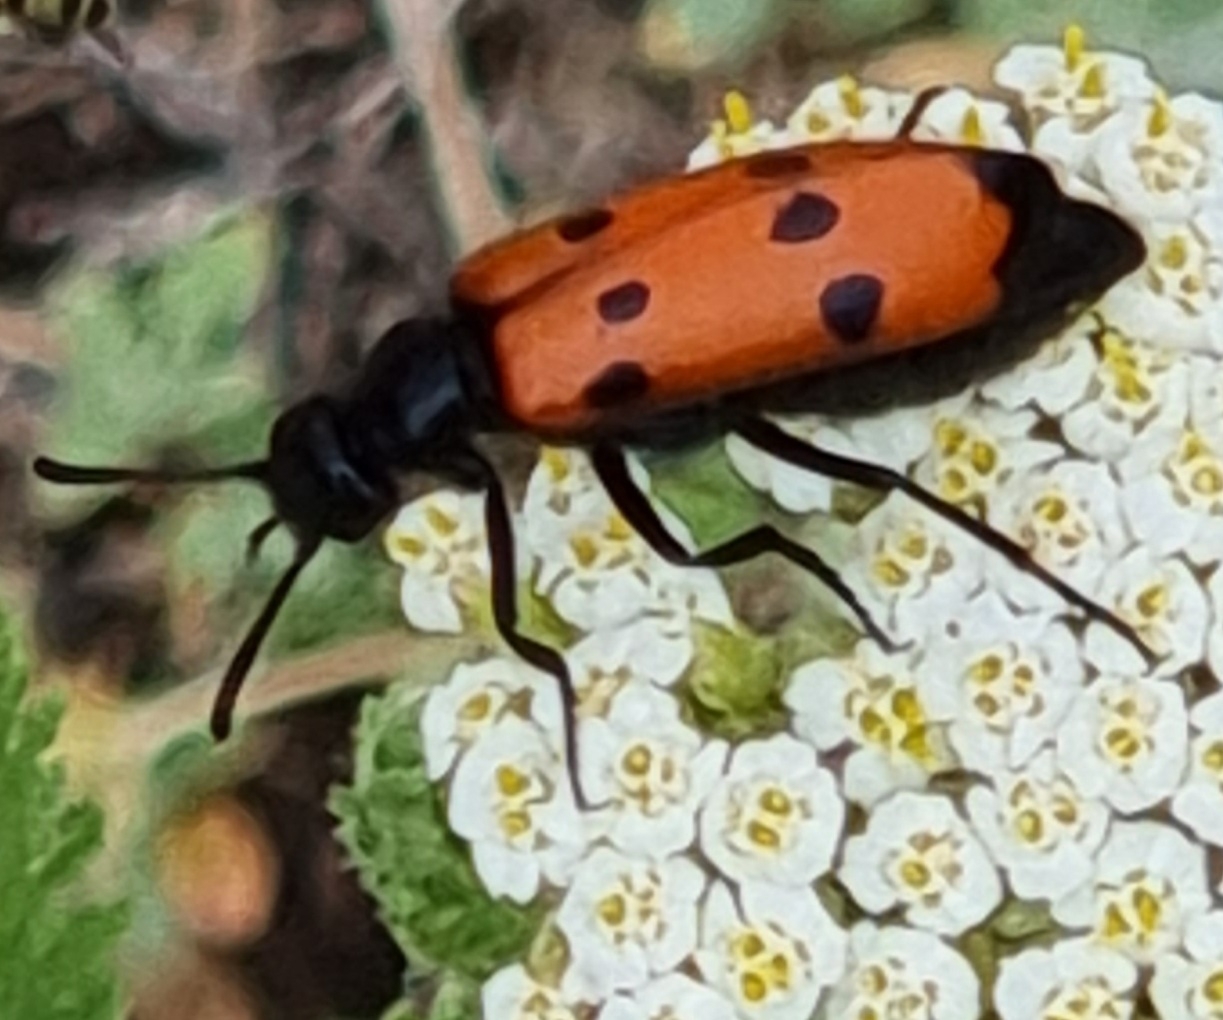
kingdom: Animalia
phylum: Arthropoda
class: Insecta
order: Coleoptera
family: Meloidae
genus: Mylabris
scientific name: Mylabris quadripunctata
